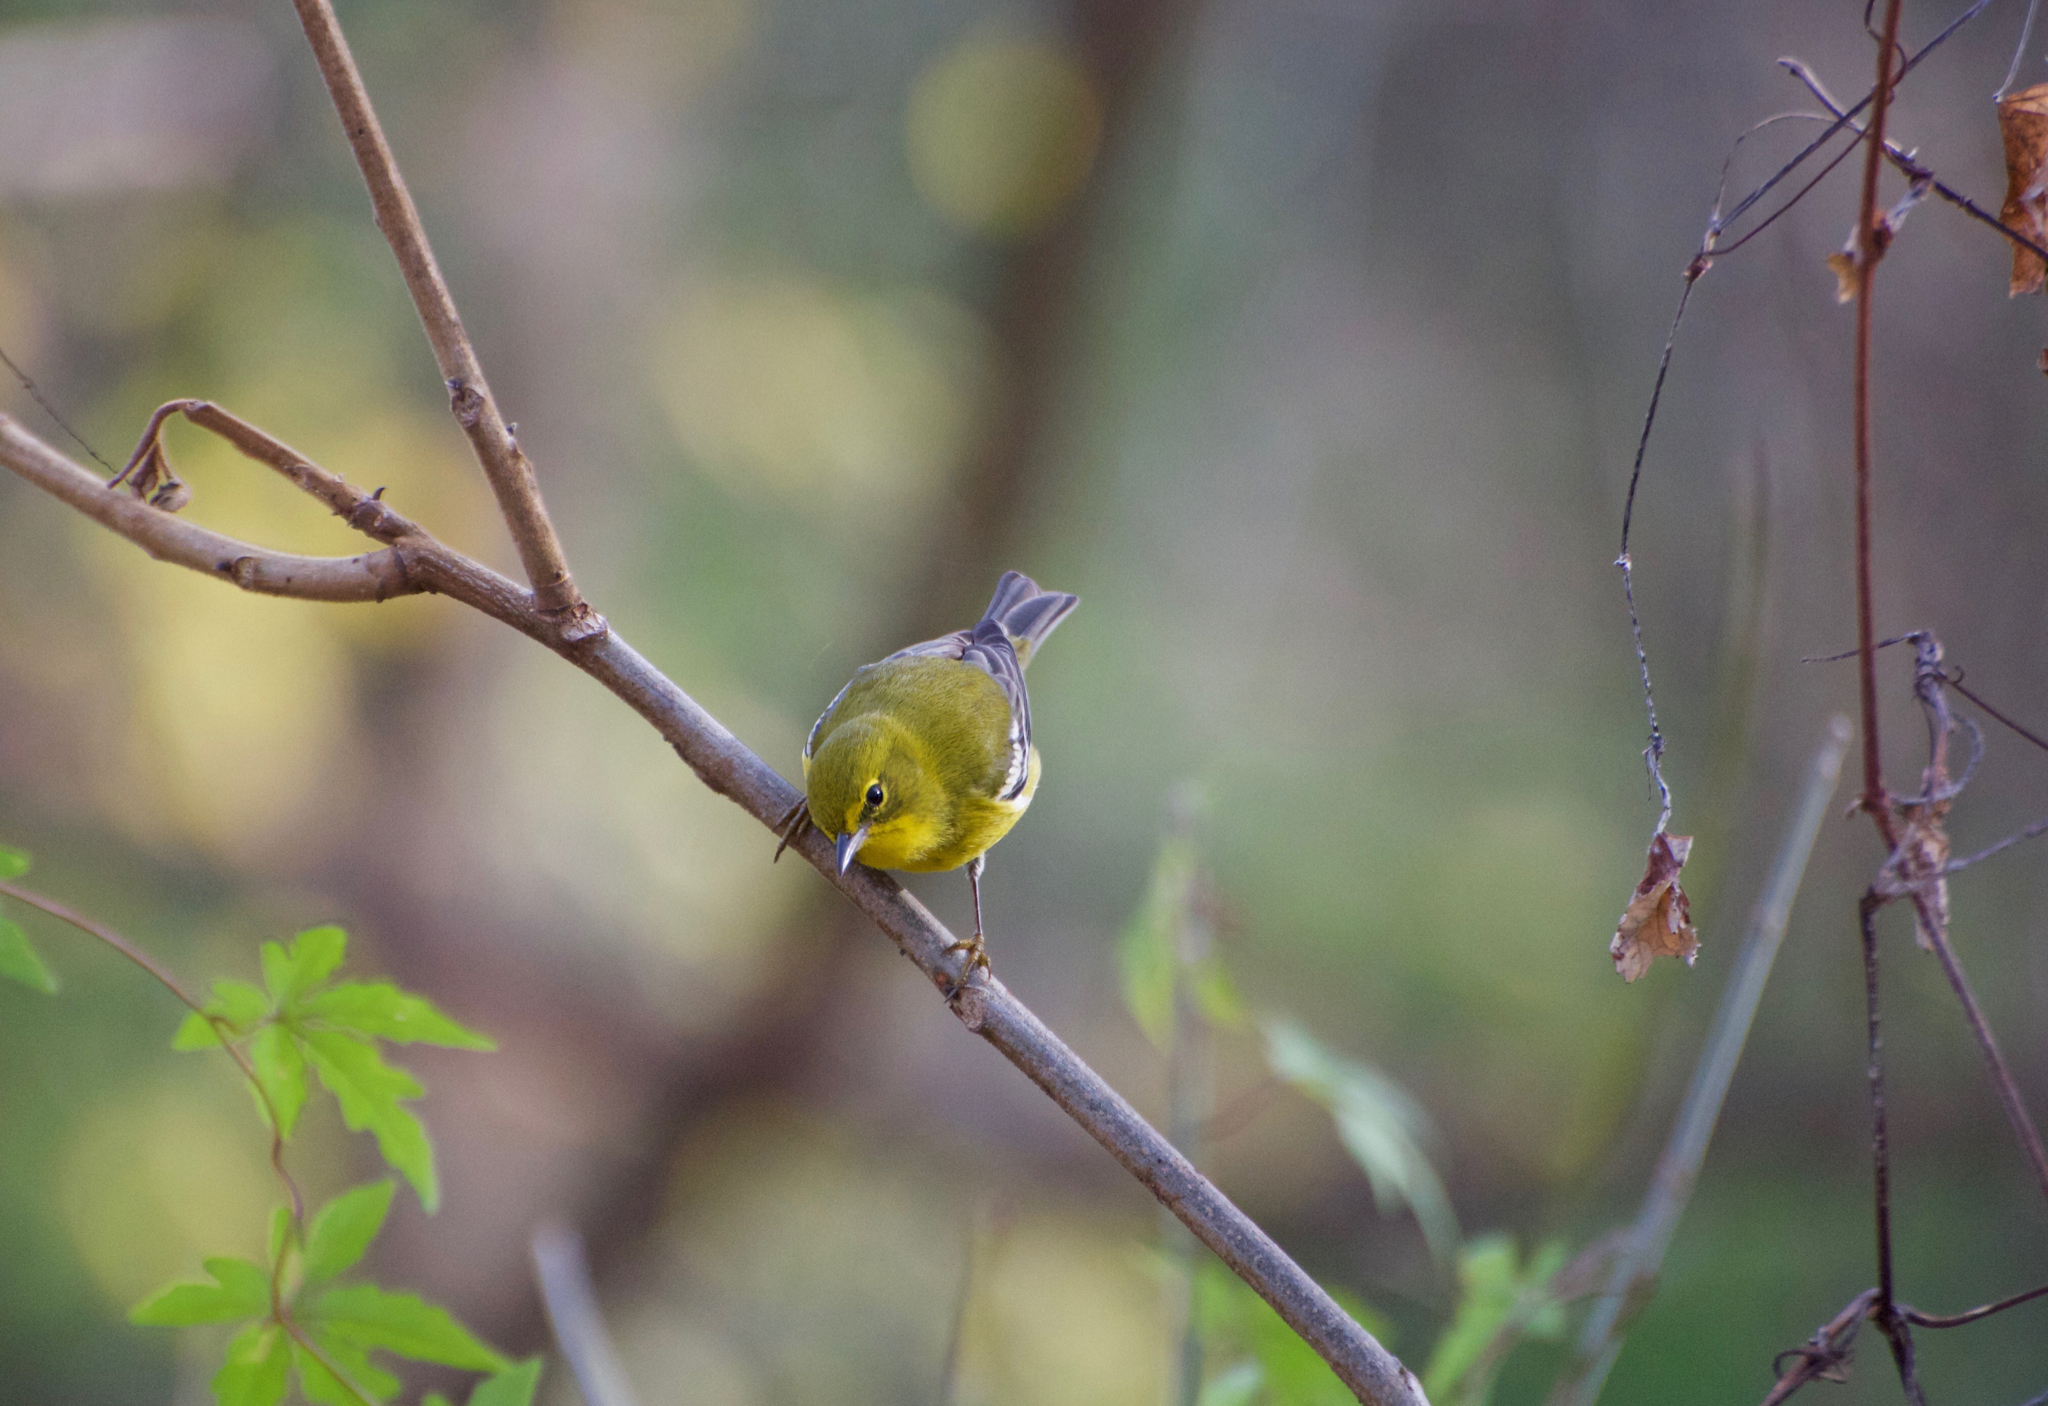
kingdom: Animalia
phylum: Chordata
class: Aves
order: Passeriformes
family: Parulidae
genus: Setophaga
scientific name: Setophaga pinus
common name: Pine warbler
